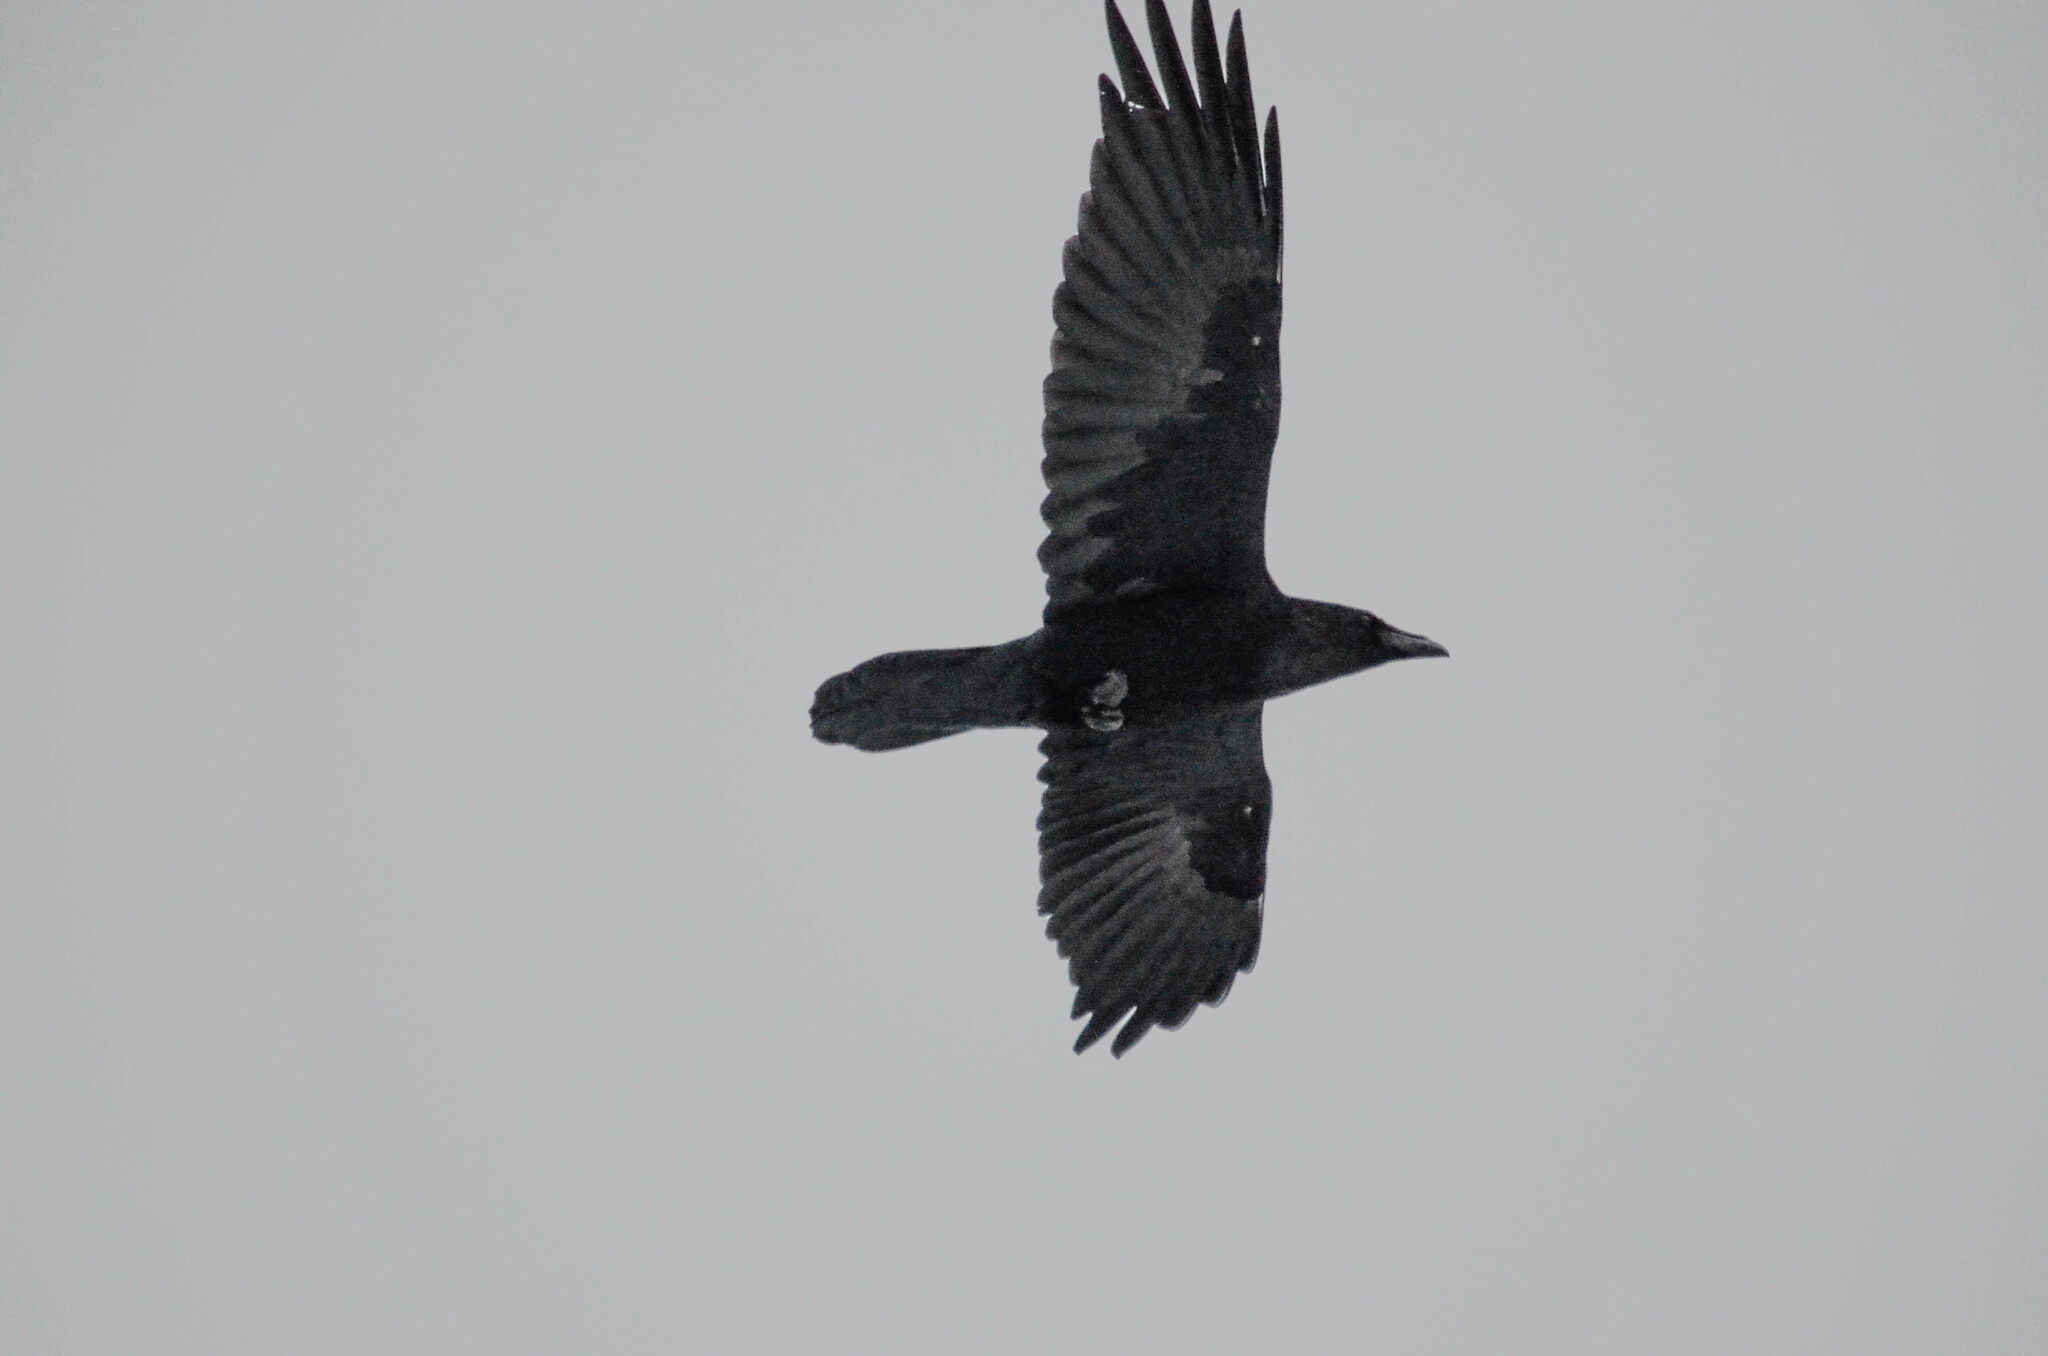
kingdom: Animalia
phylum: Chordata
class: Aves
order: Passeriformes
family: Corvidae
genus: Corvus
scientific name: Corvus corax
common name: Common raven
